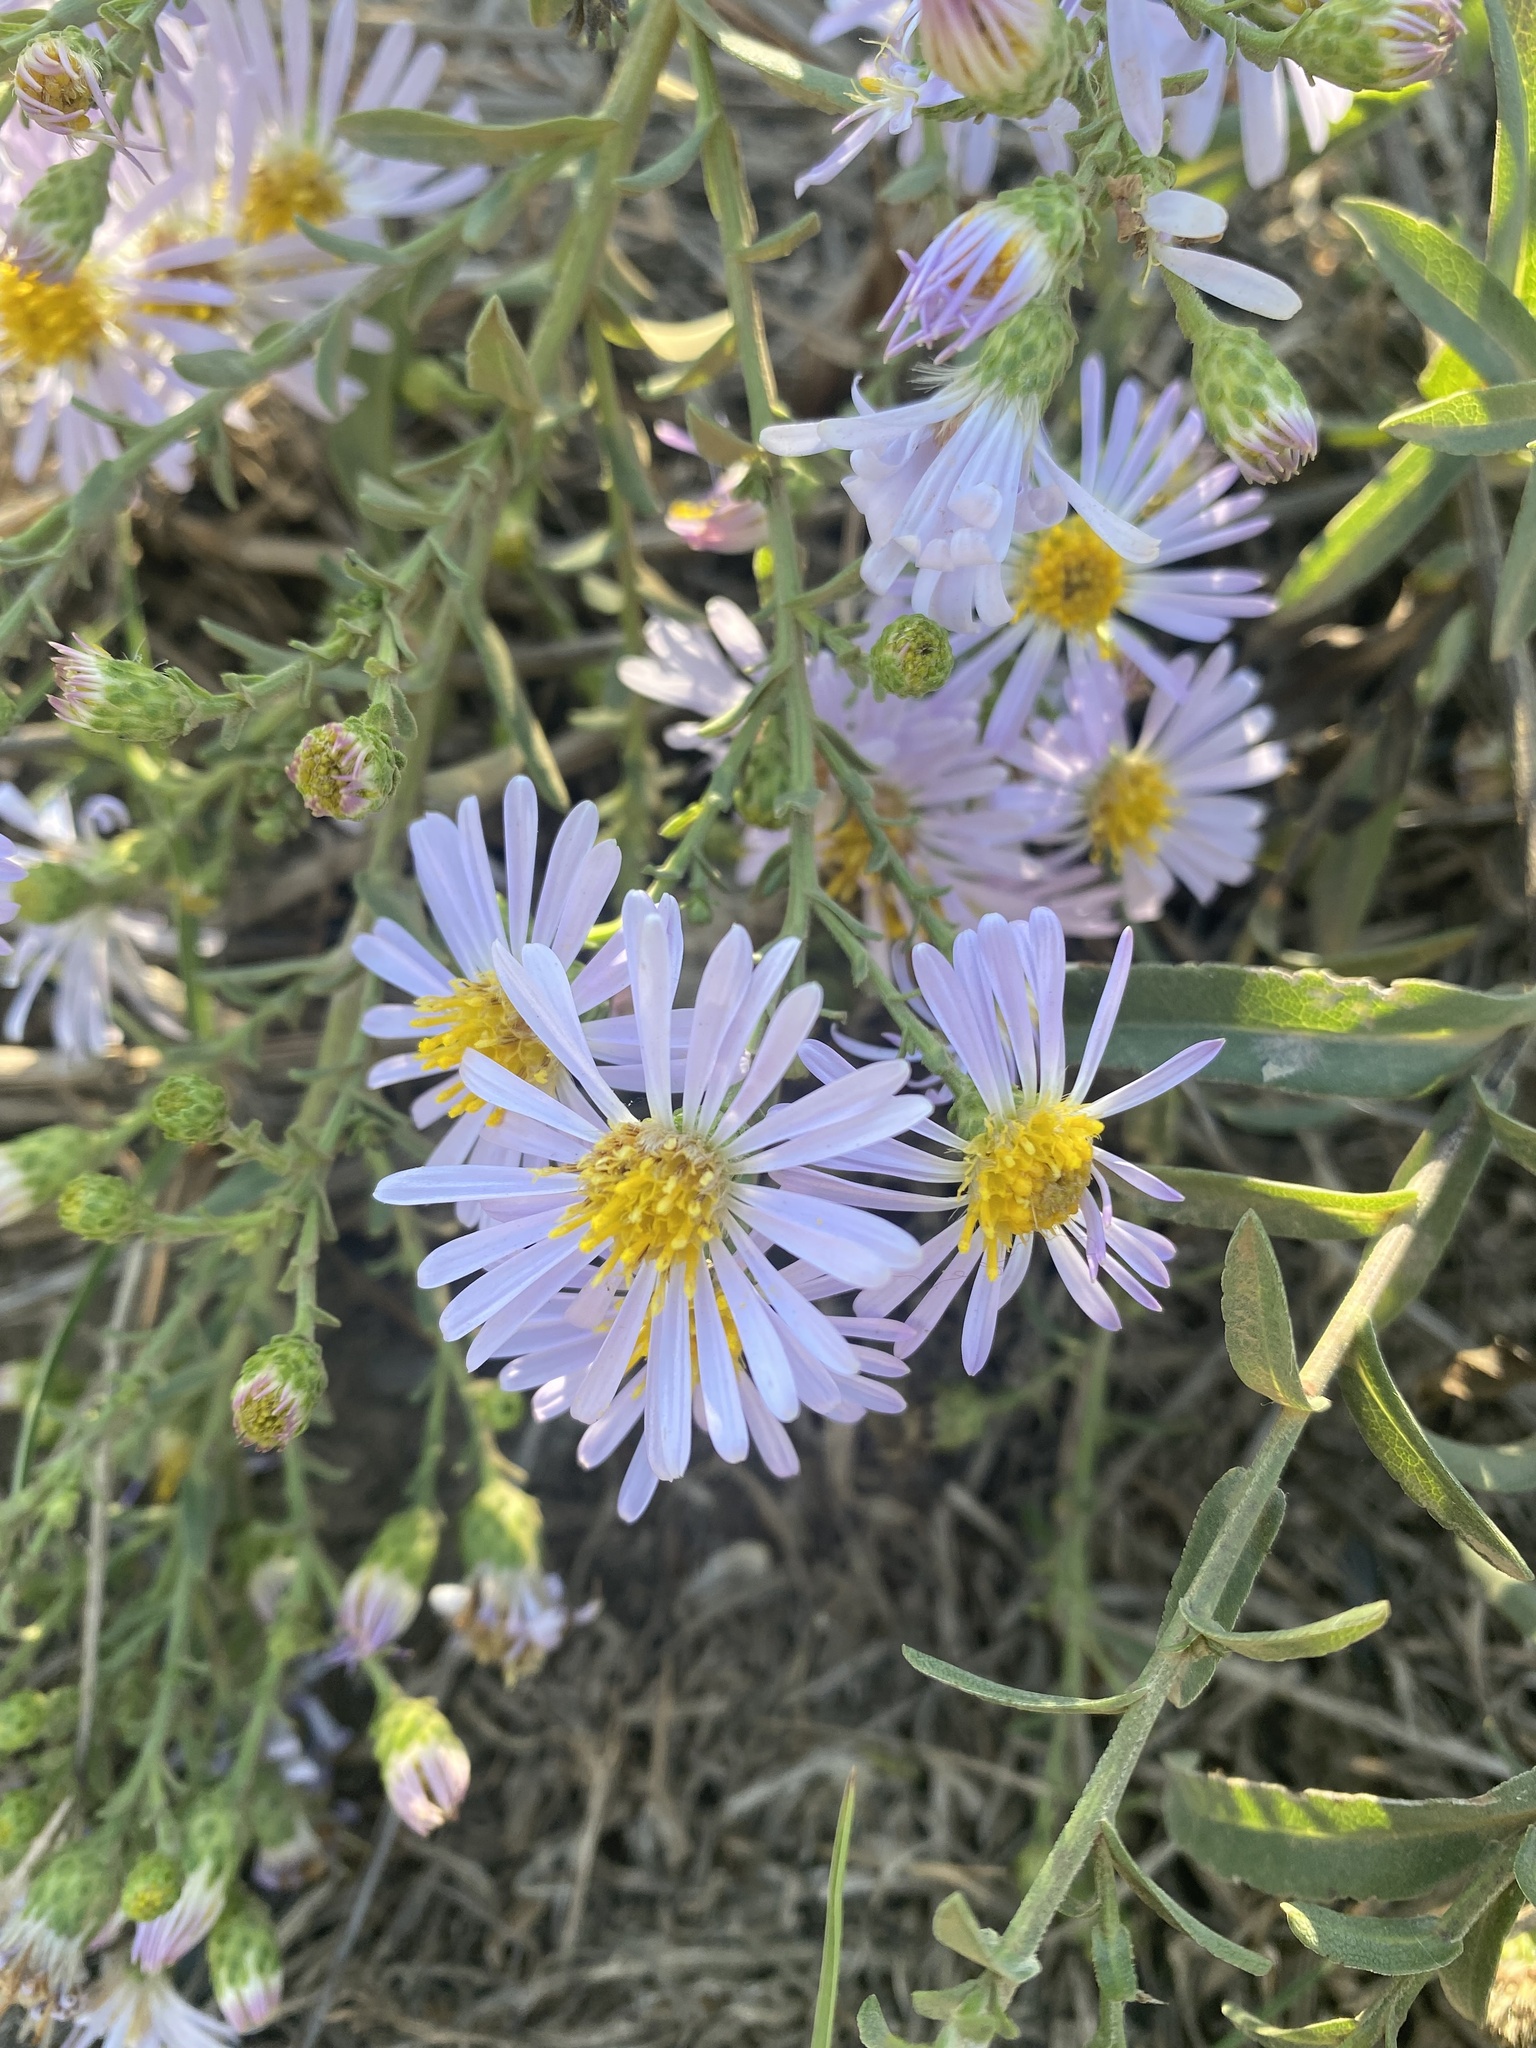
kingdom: Plantae
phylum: Tracheophyta
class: Magnoliopsida
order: Asterales
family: Asteraceae
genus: Symphyotrichum
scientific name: Symphyotrichum chilense
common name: Pacific aster
